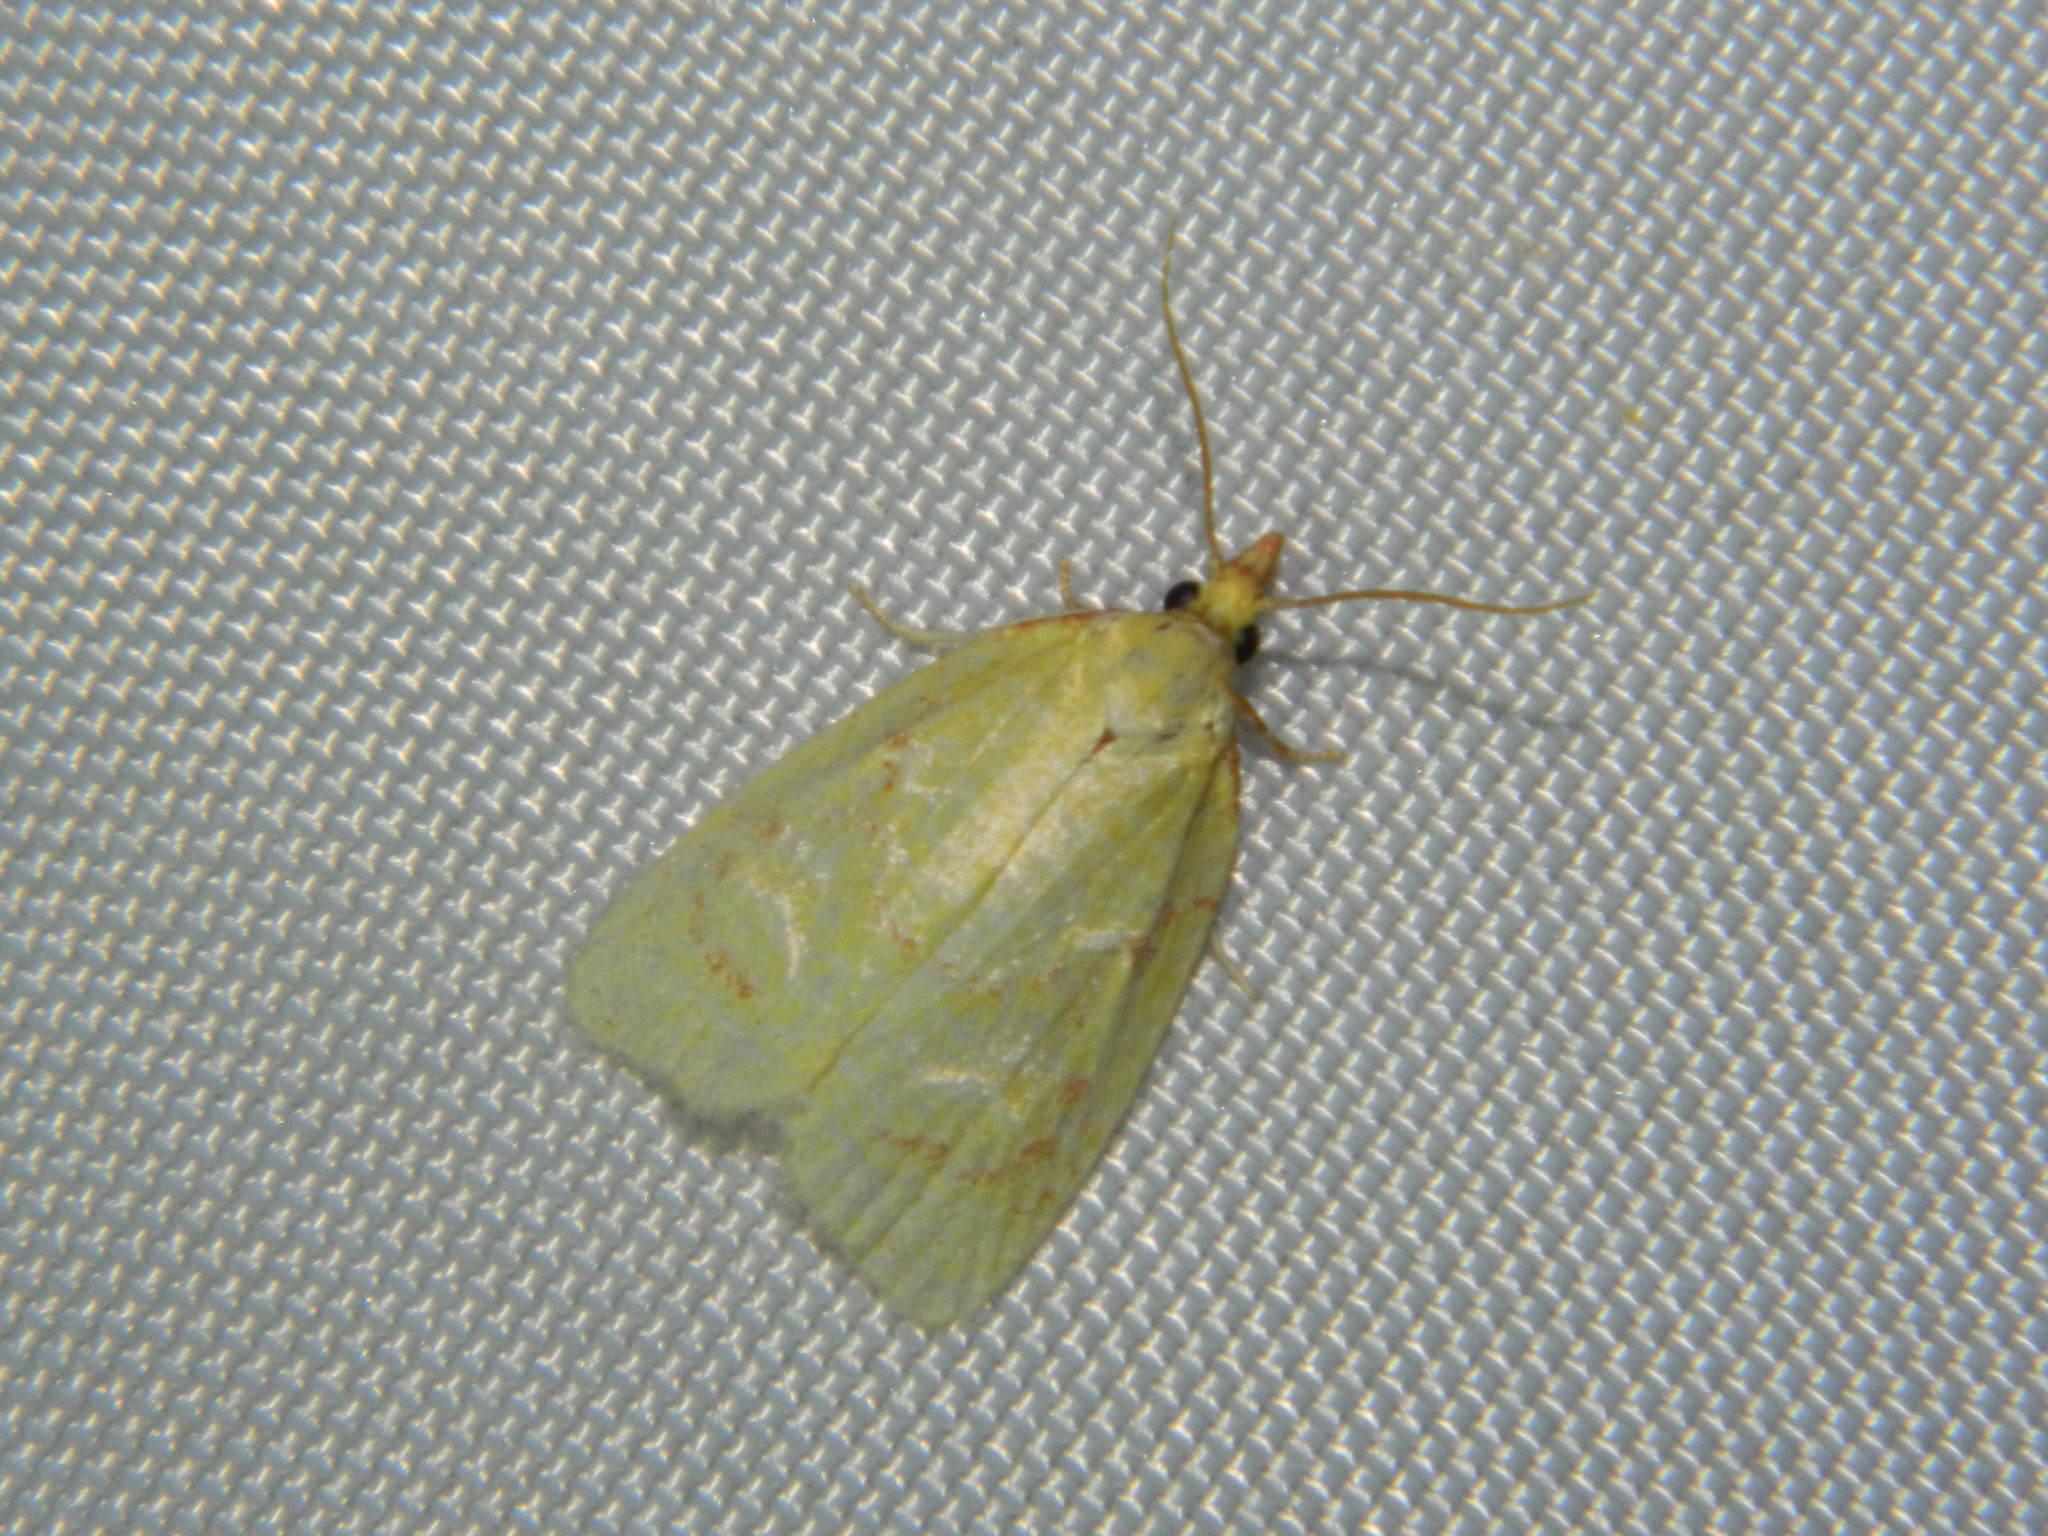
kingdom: Animalia
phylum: Arthropoda
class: Insecta
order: Lepidoptera
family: Tortricidae
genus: Cenopis
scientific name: Cenopis pettitana
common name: Maple-basswood leafroller moth
